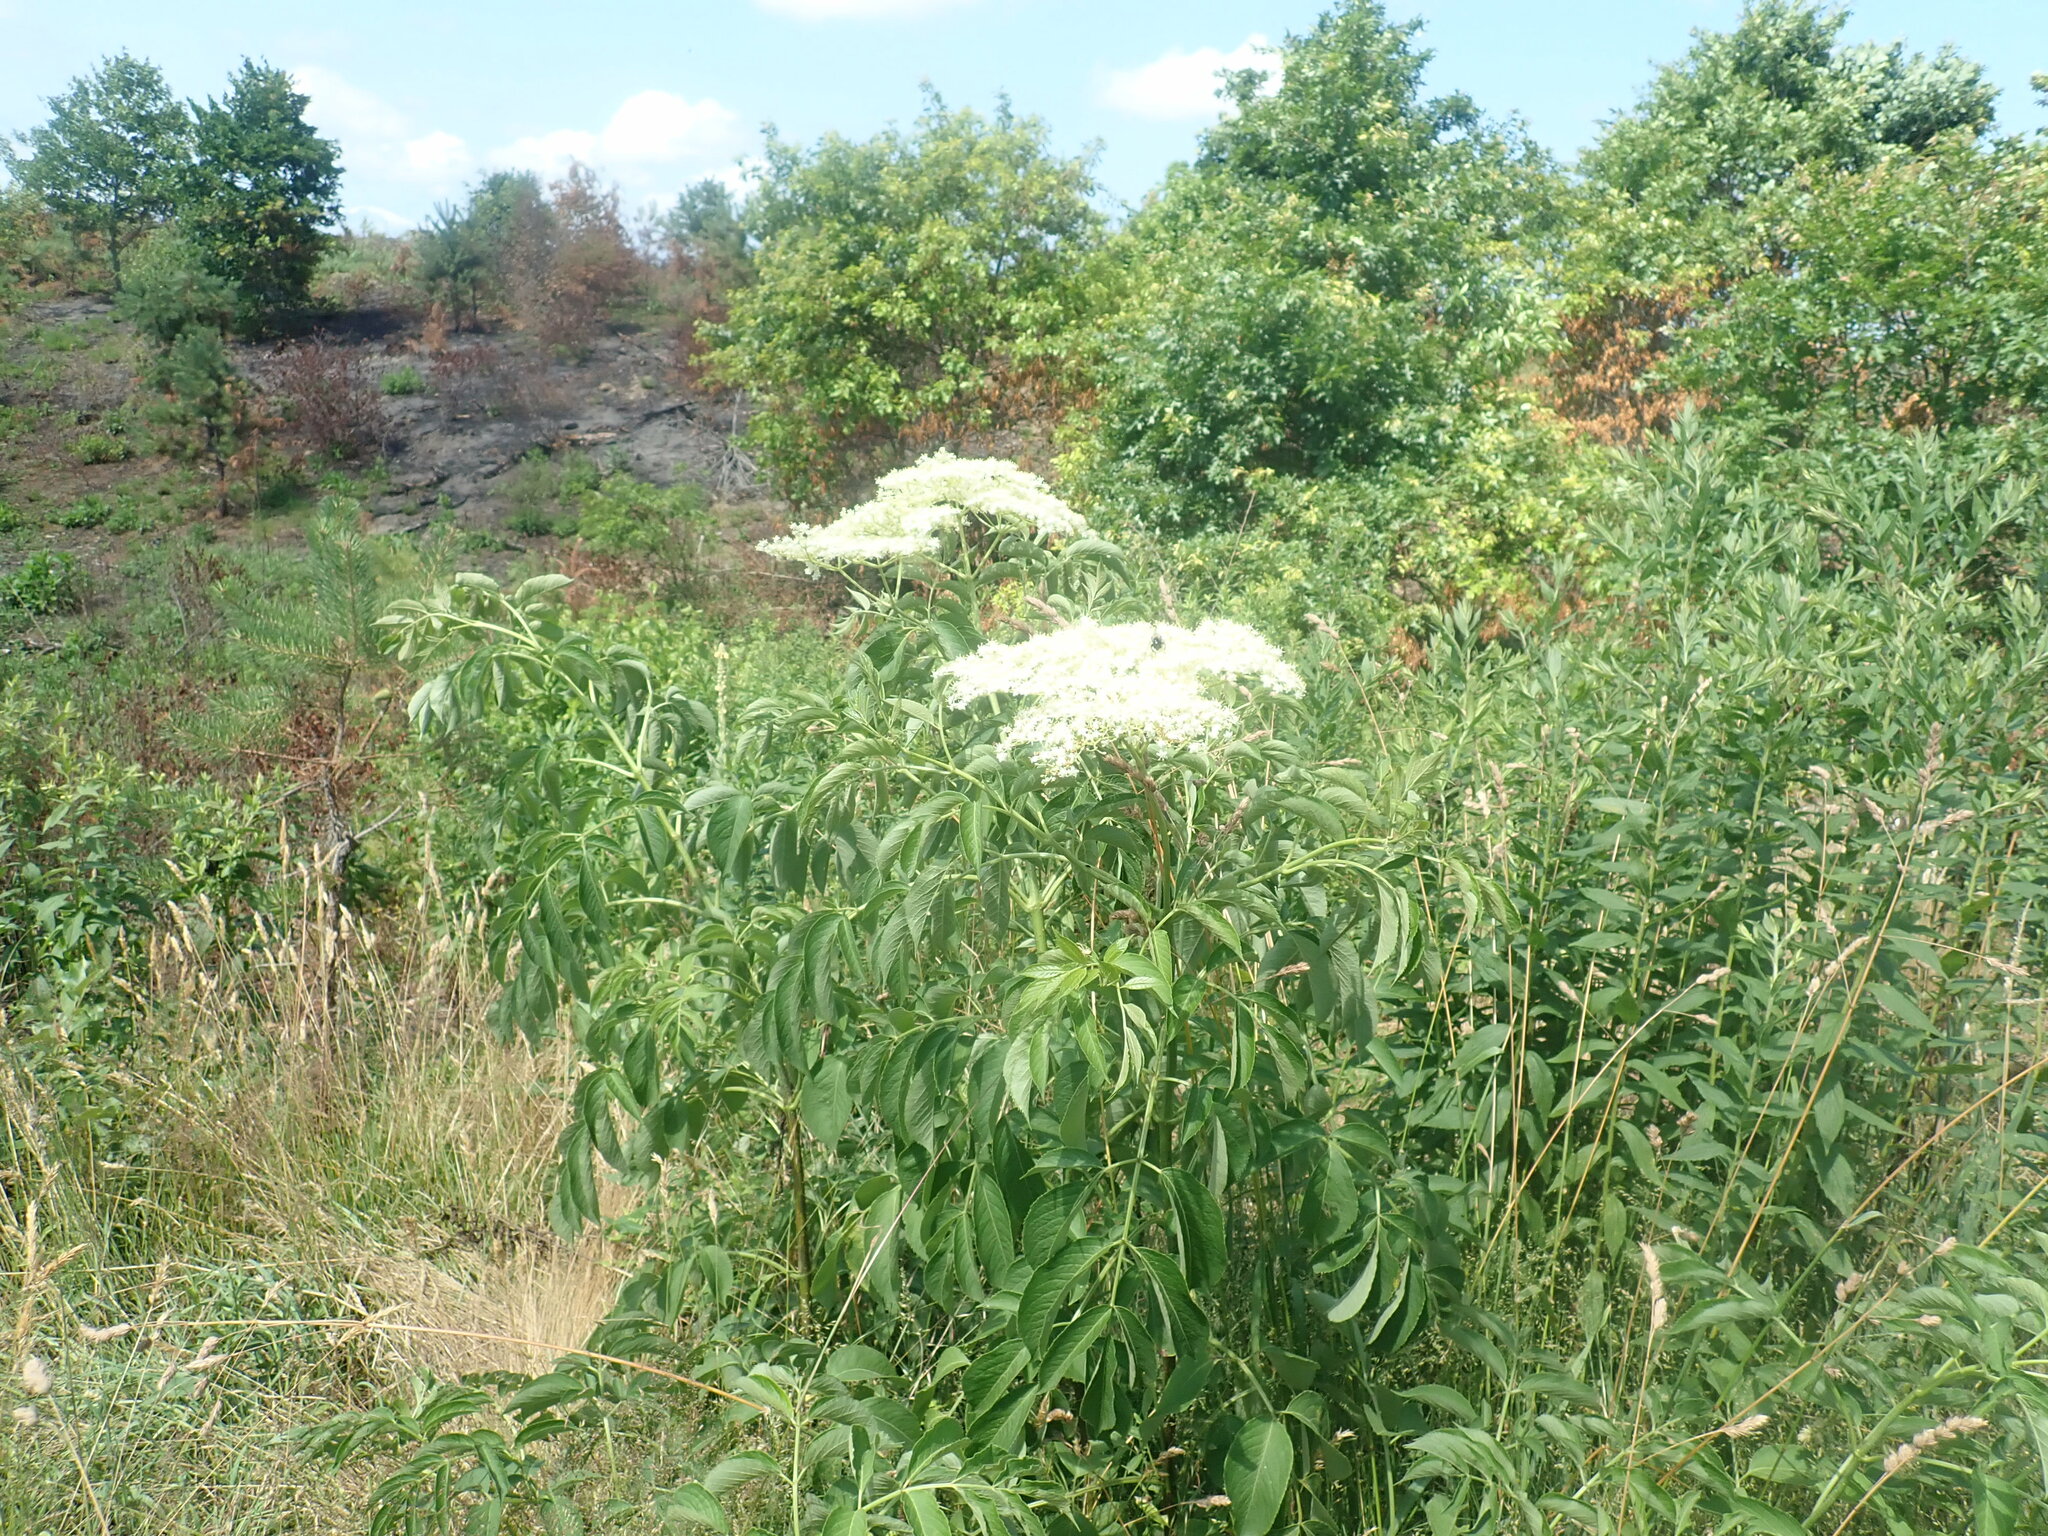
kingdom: Plantae
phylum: Tracheophyta
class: Magnoliopsida
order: Dipsacales
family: Viburnaceae
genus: Sambucus
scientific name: Sambucus canadensis
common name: American elder
